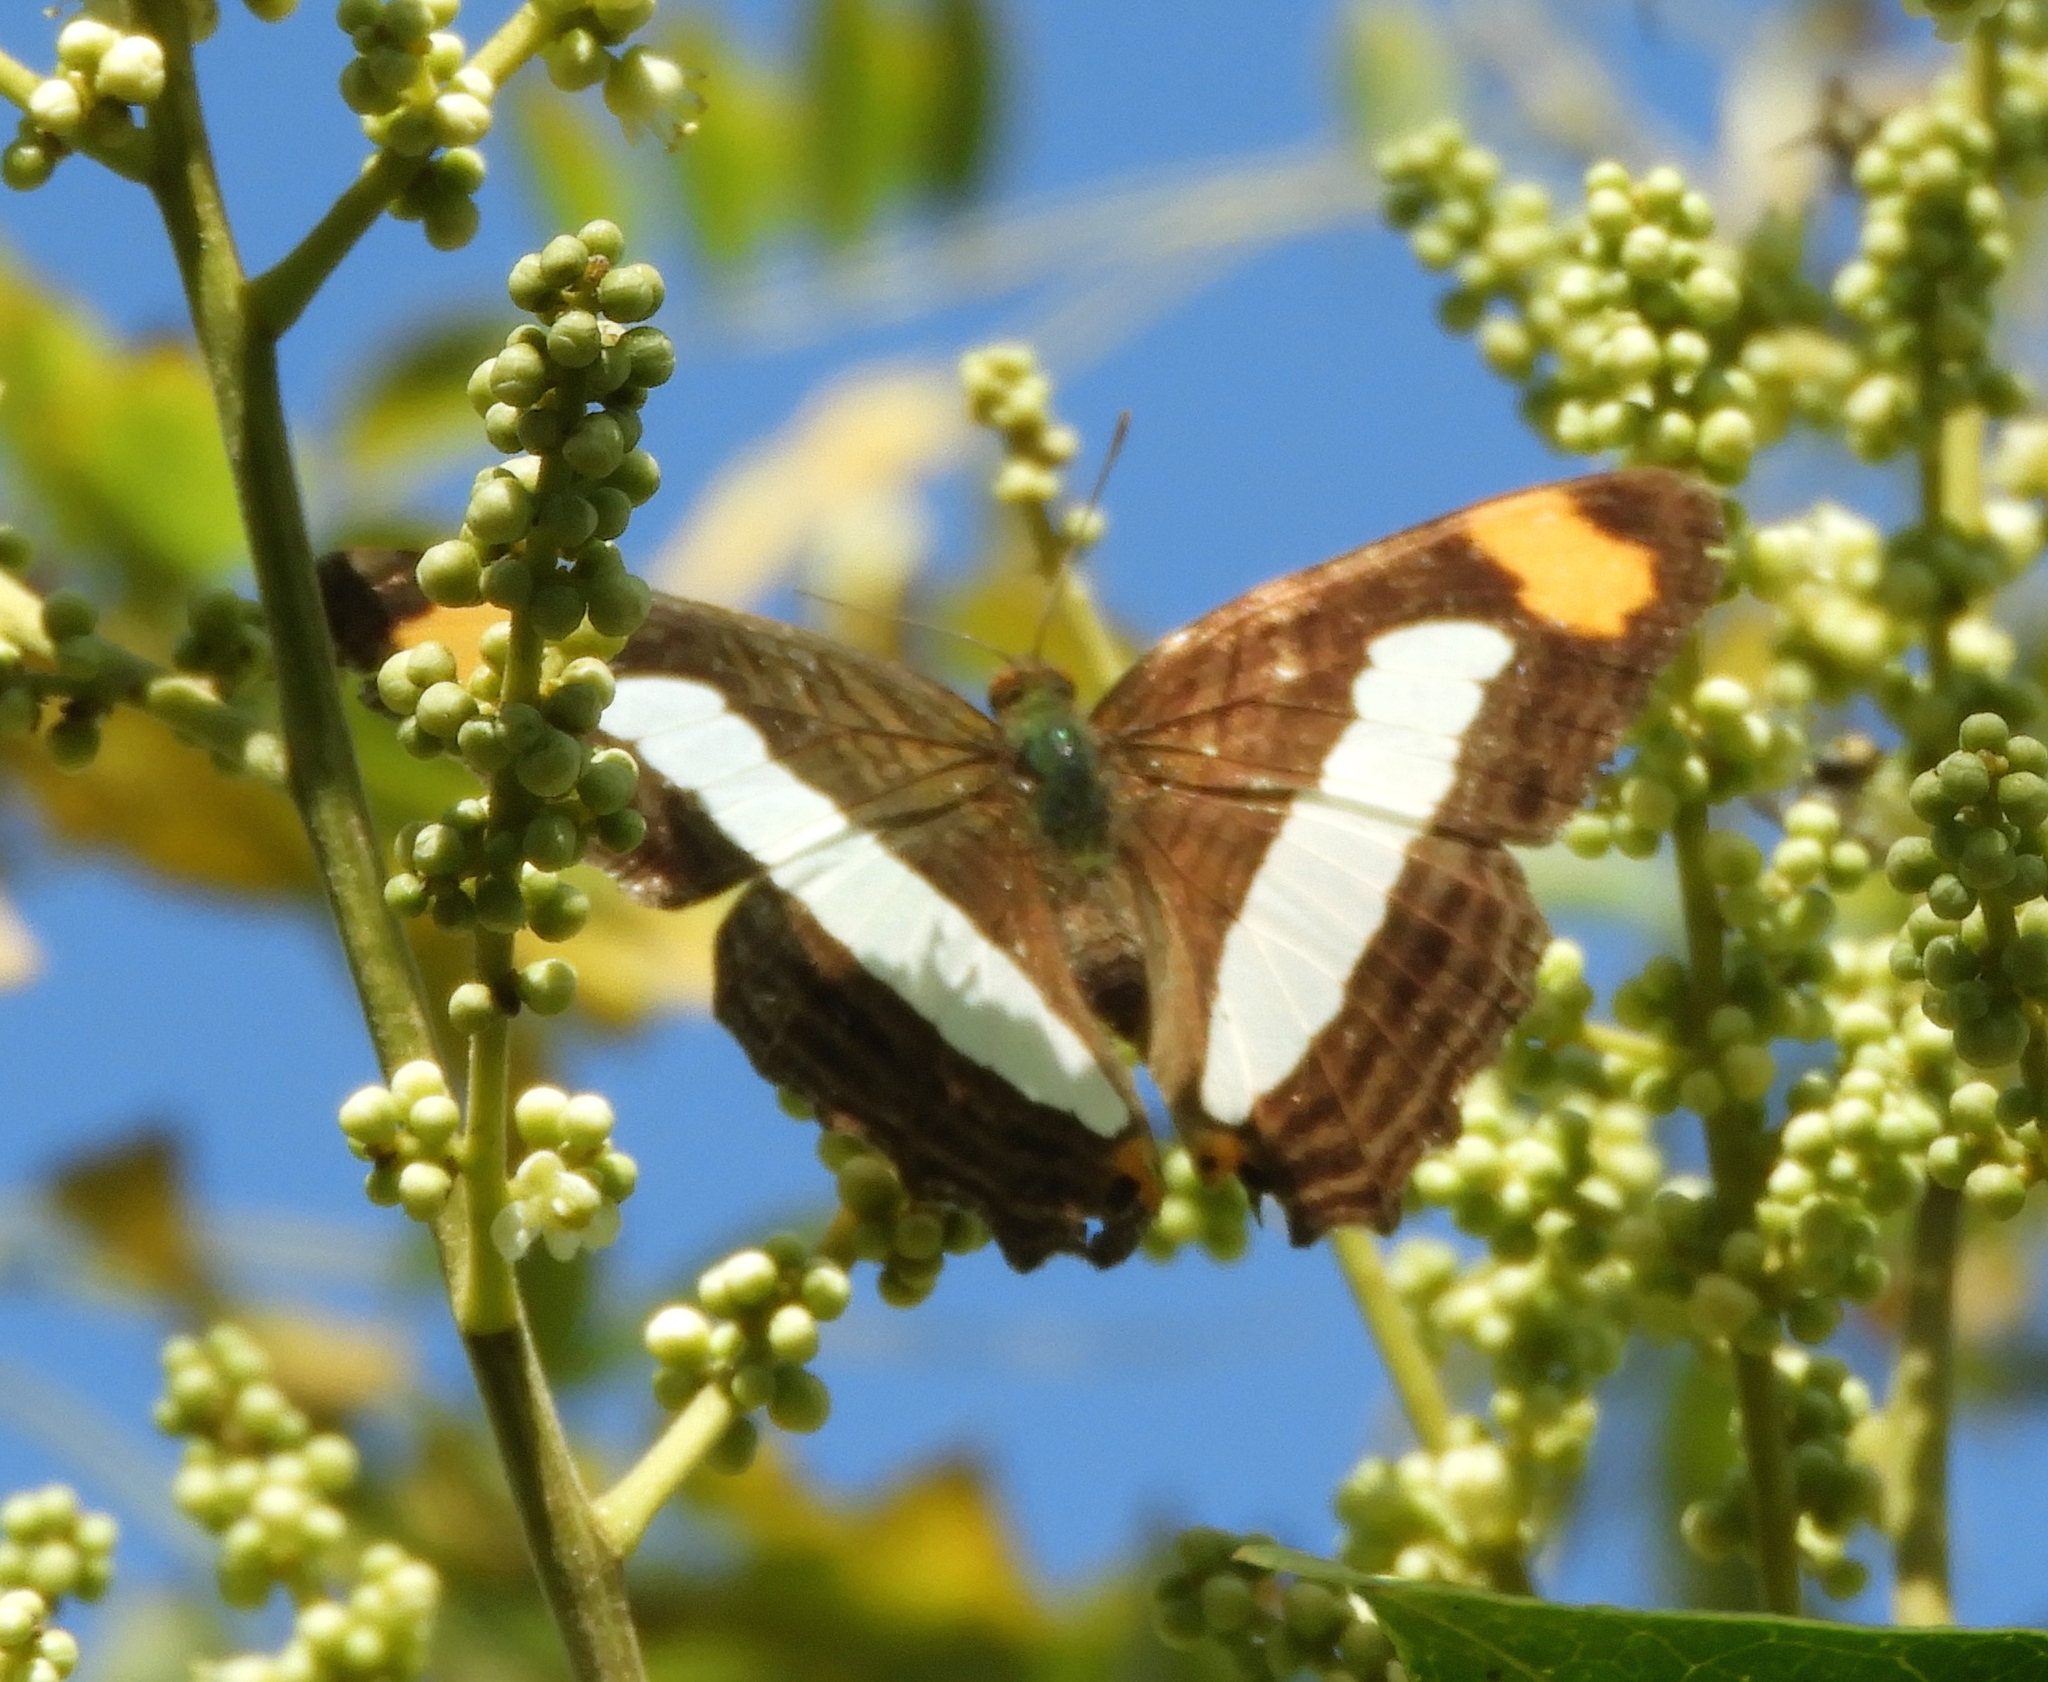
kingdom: Animalia
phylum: Arthropoda
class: Insecta
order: Lepidoptera
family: Nymphalidae
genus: Limenitis
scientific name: Limenitis iphiclus
